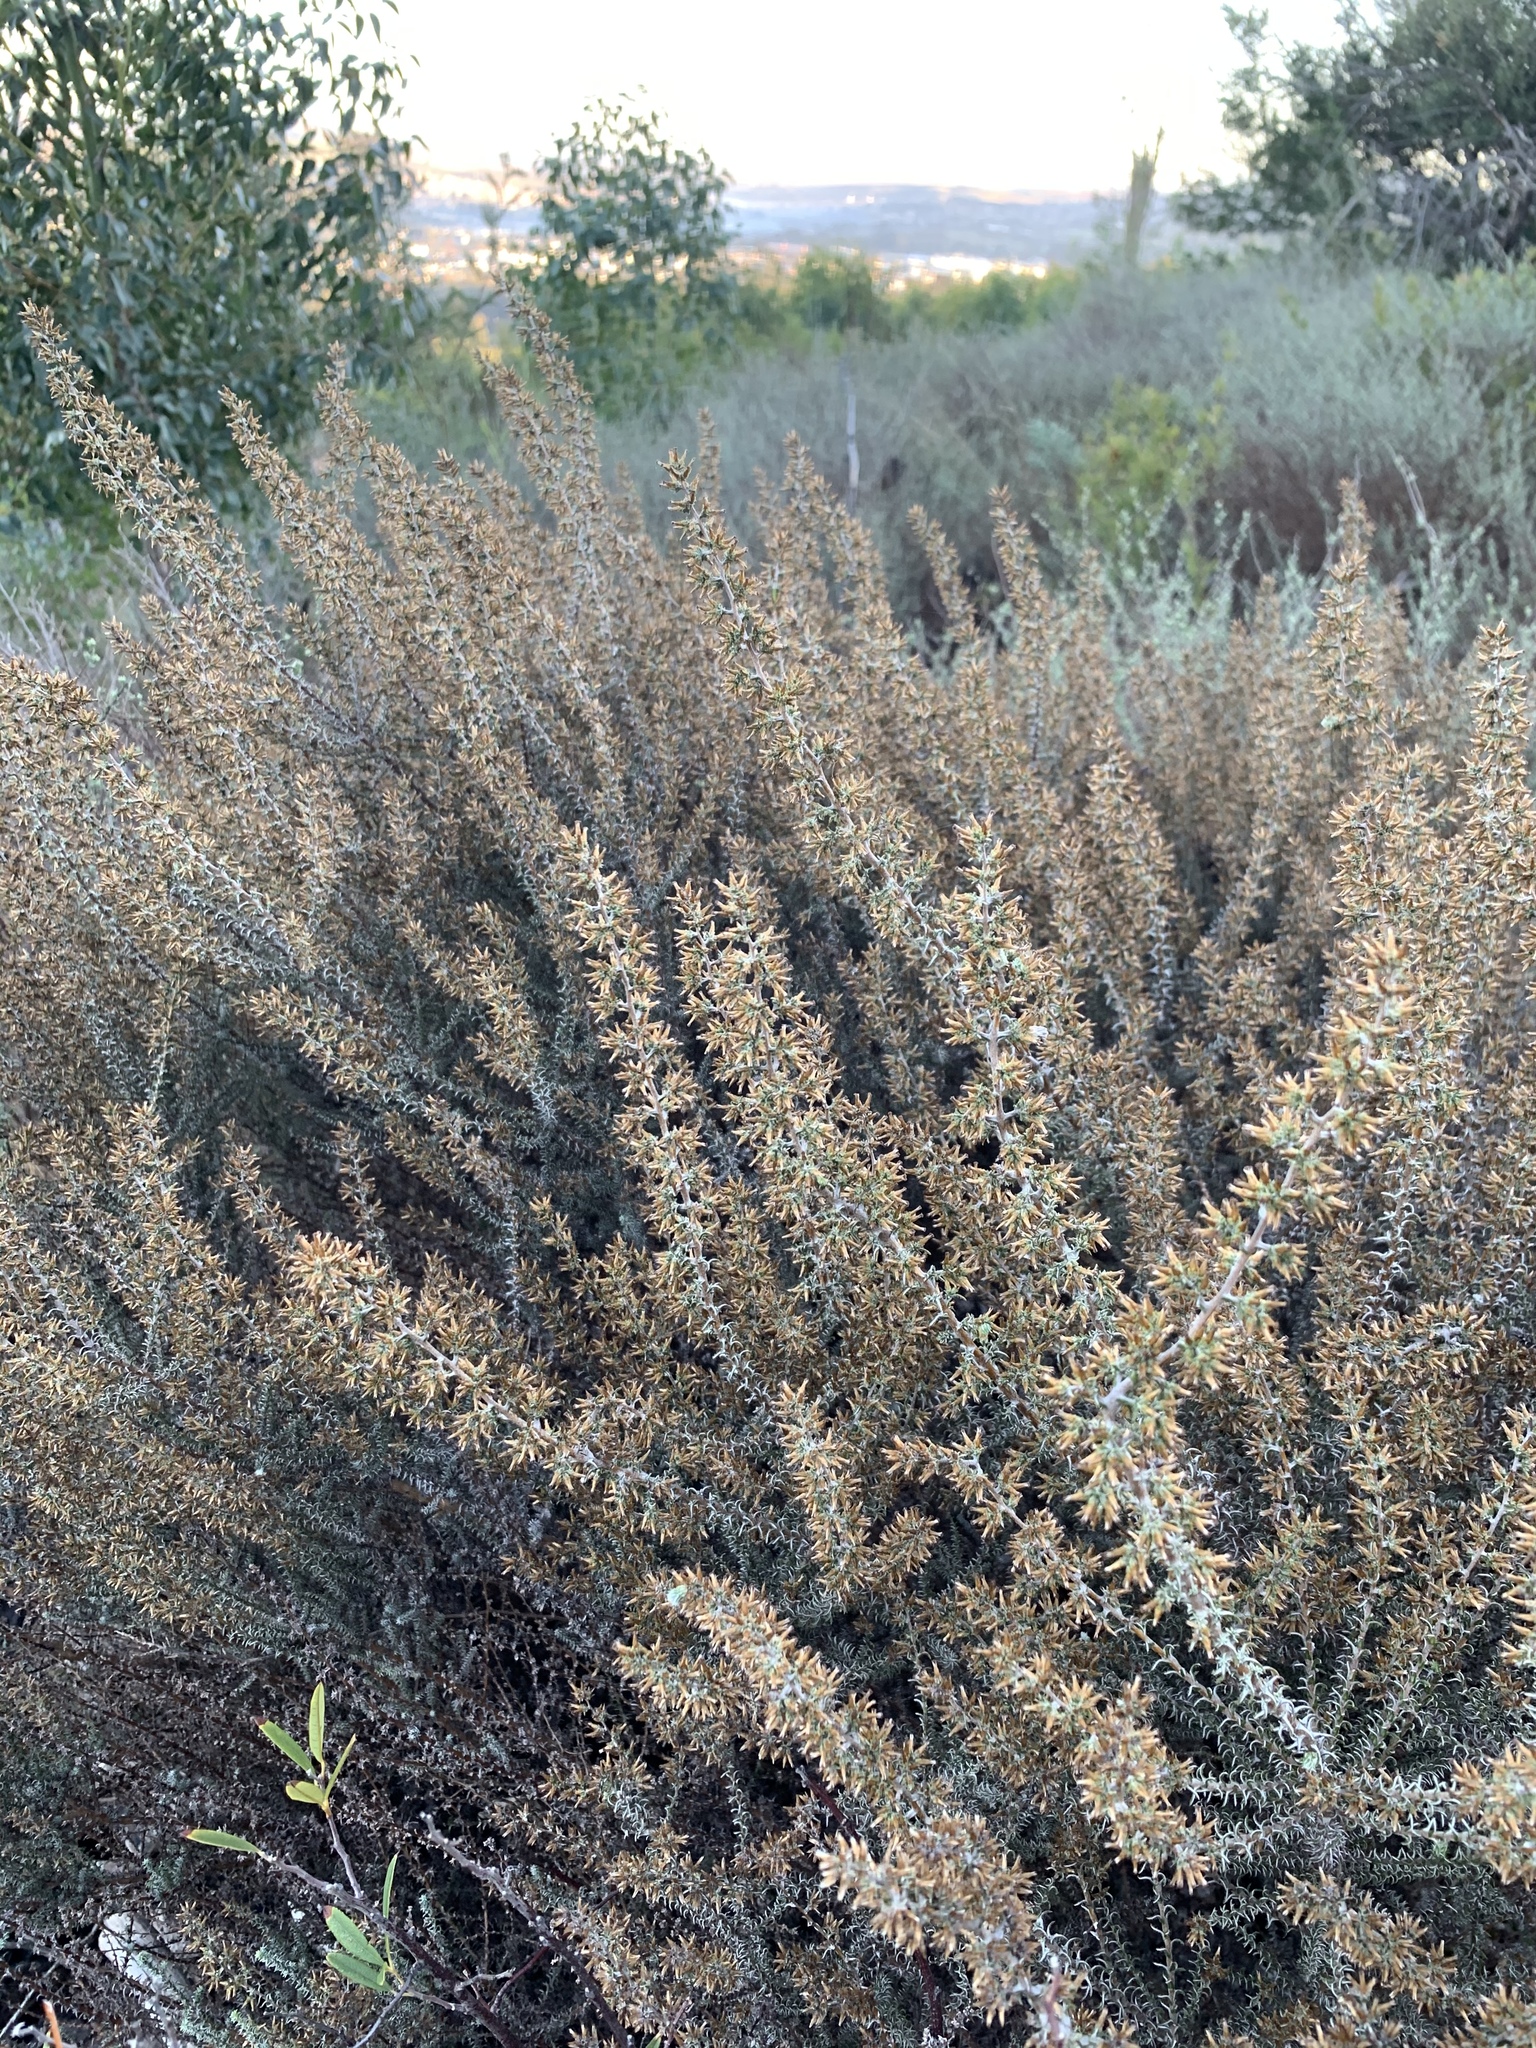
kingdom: Plantae
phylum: Tracheophyta
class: Magnoliopsida
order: Asterales
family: Asteraceae
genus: Seriphium
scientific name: Seriphium plumosum
